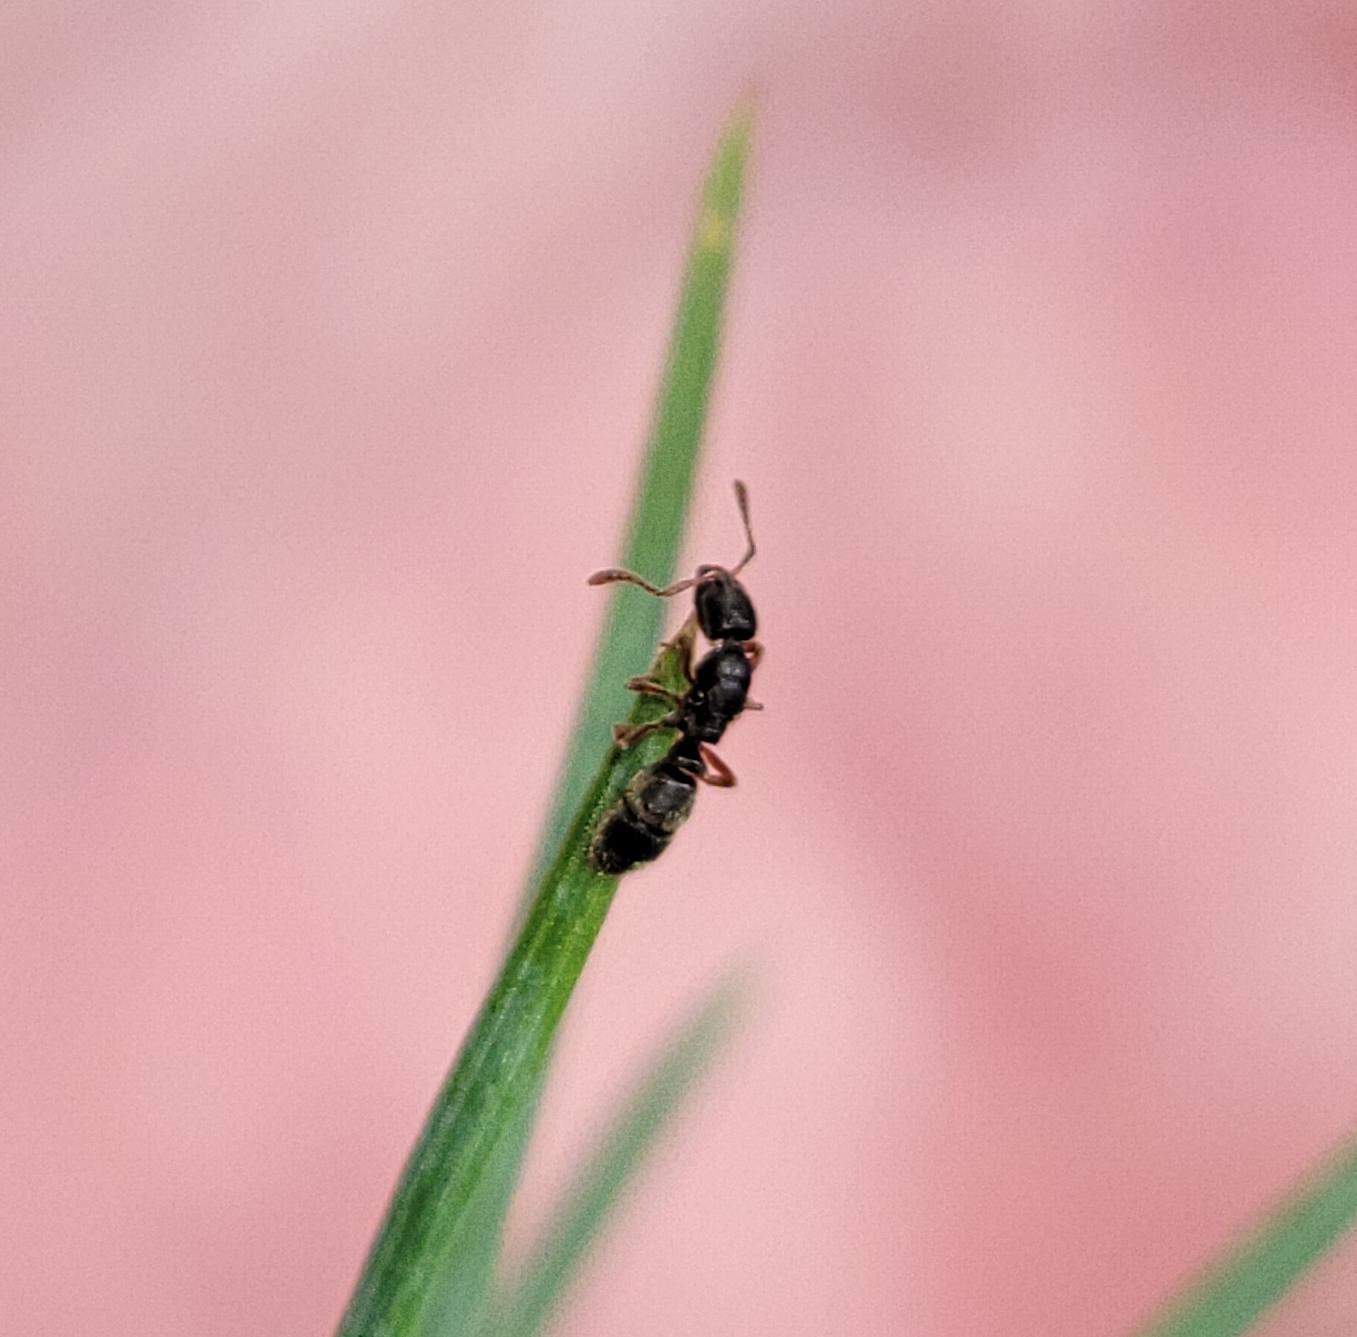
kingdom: Animalia
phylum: Arthropoda
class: Insecta
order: Hymenoptera
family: Formicidae
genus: Ponera
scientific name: Ponera pennsylvanica
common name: Pennsylvania ponera
